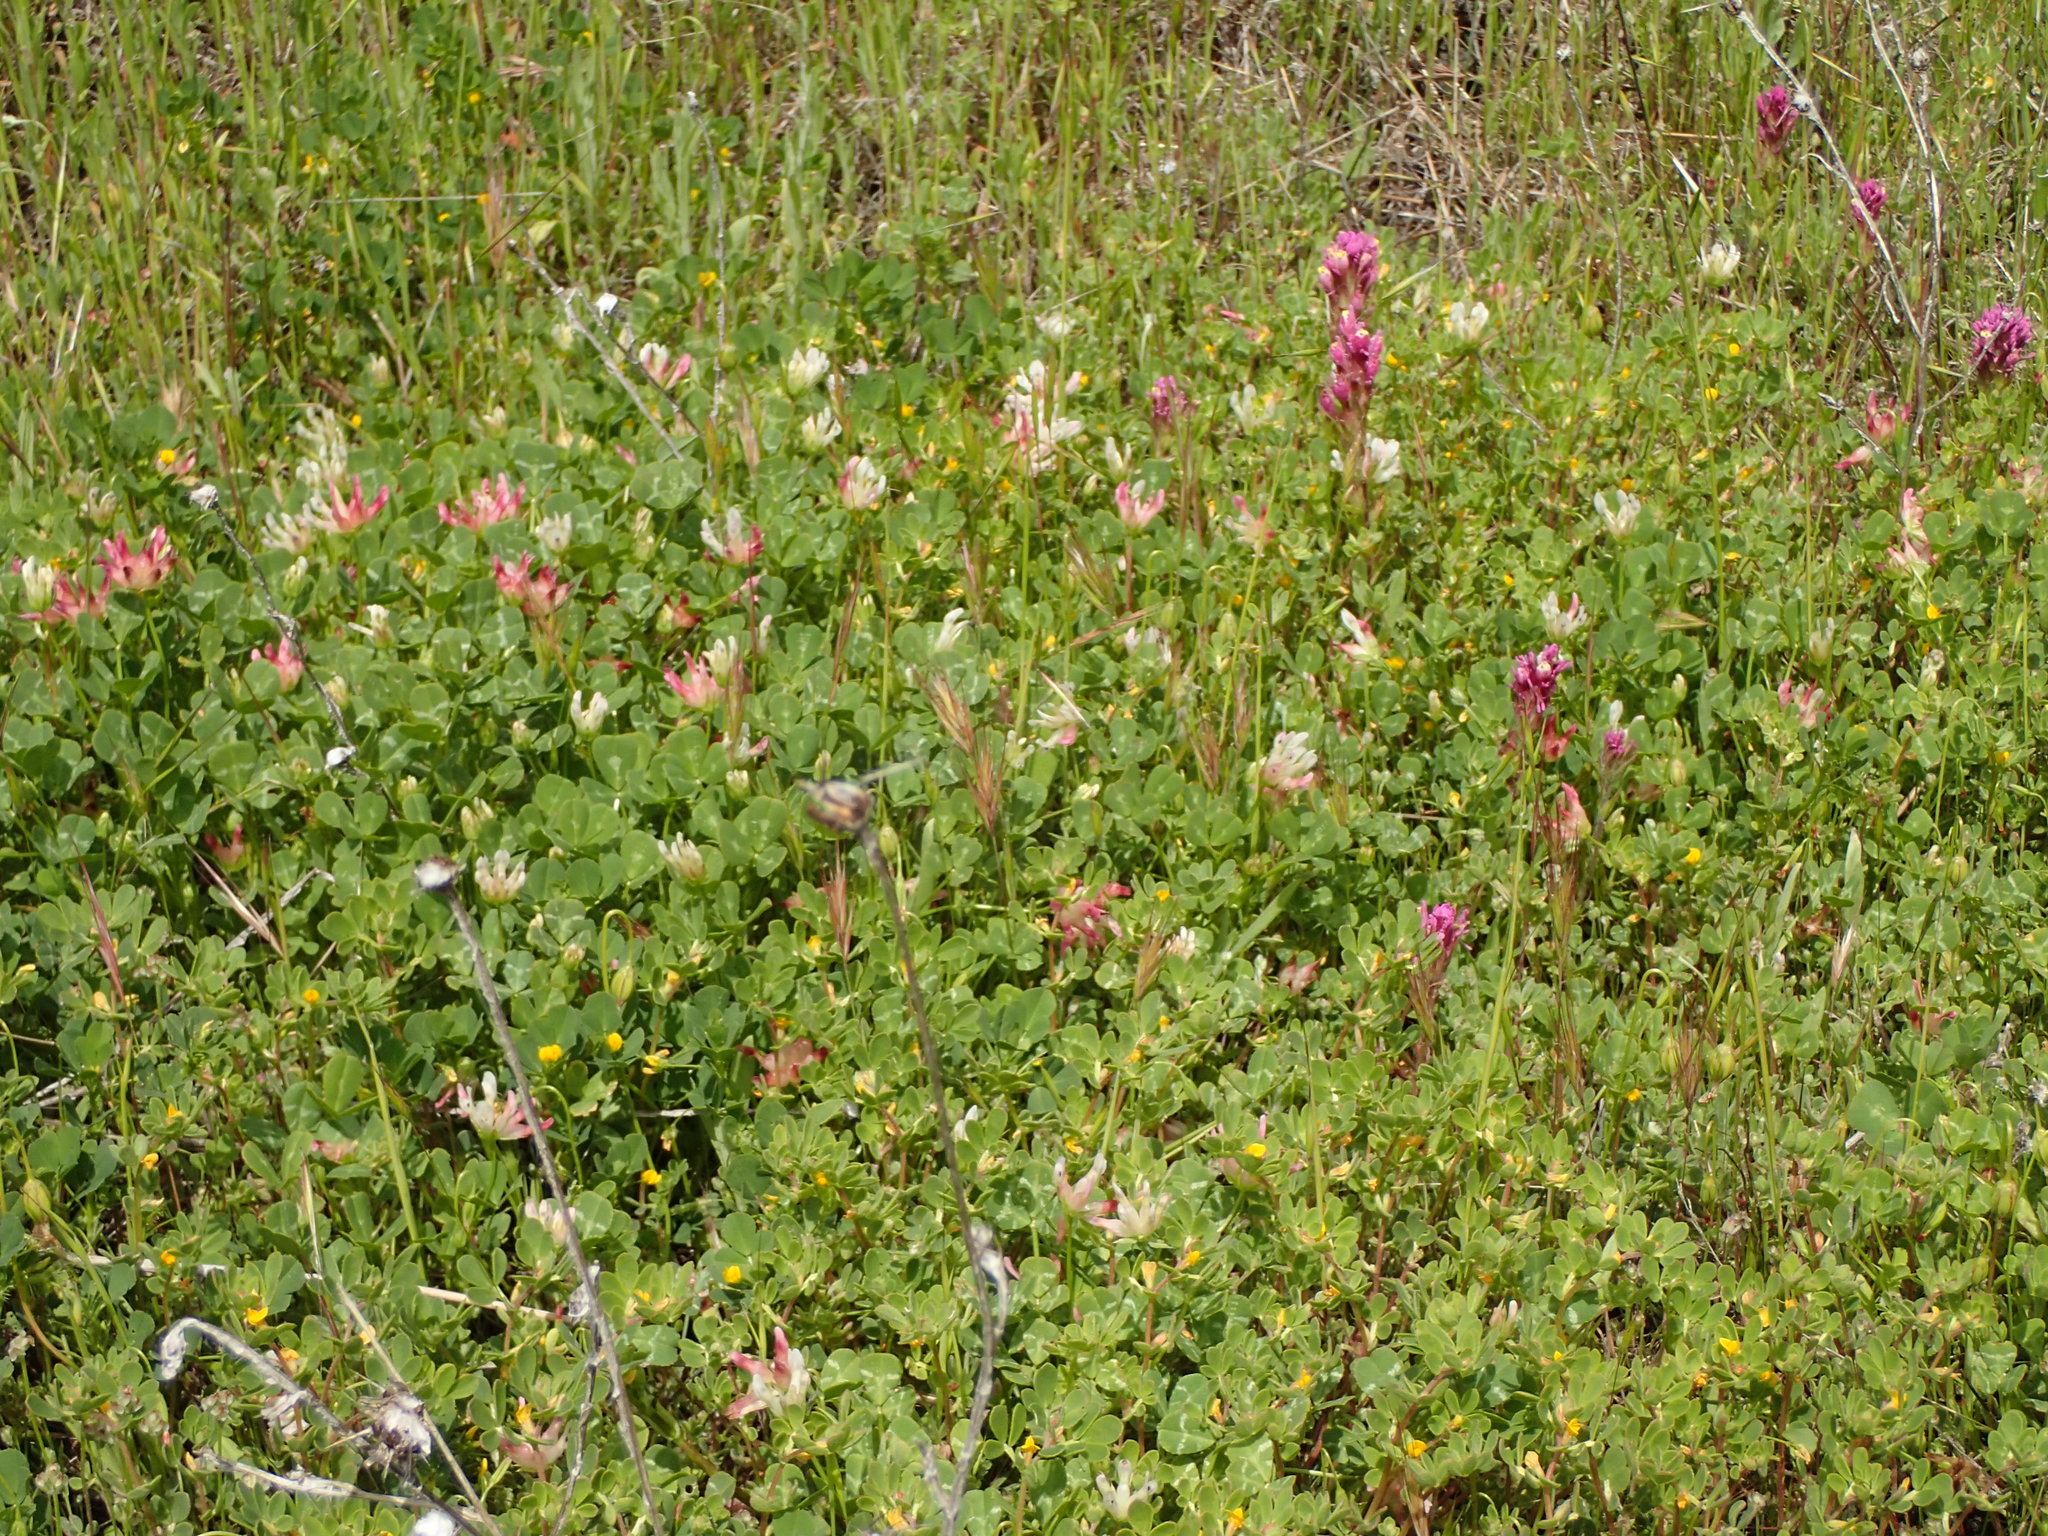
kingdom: Plantae
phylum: Tracheophyta
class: Magnoliopsida
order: Fabales
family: Fabaceae
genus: Trifolium
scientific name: Trifolium fucatum
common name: Puff clover
